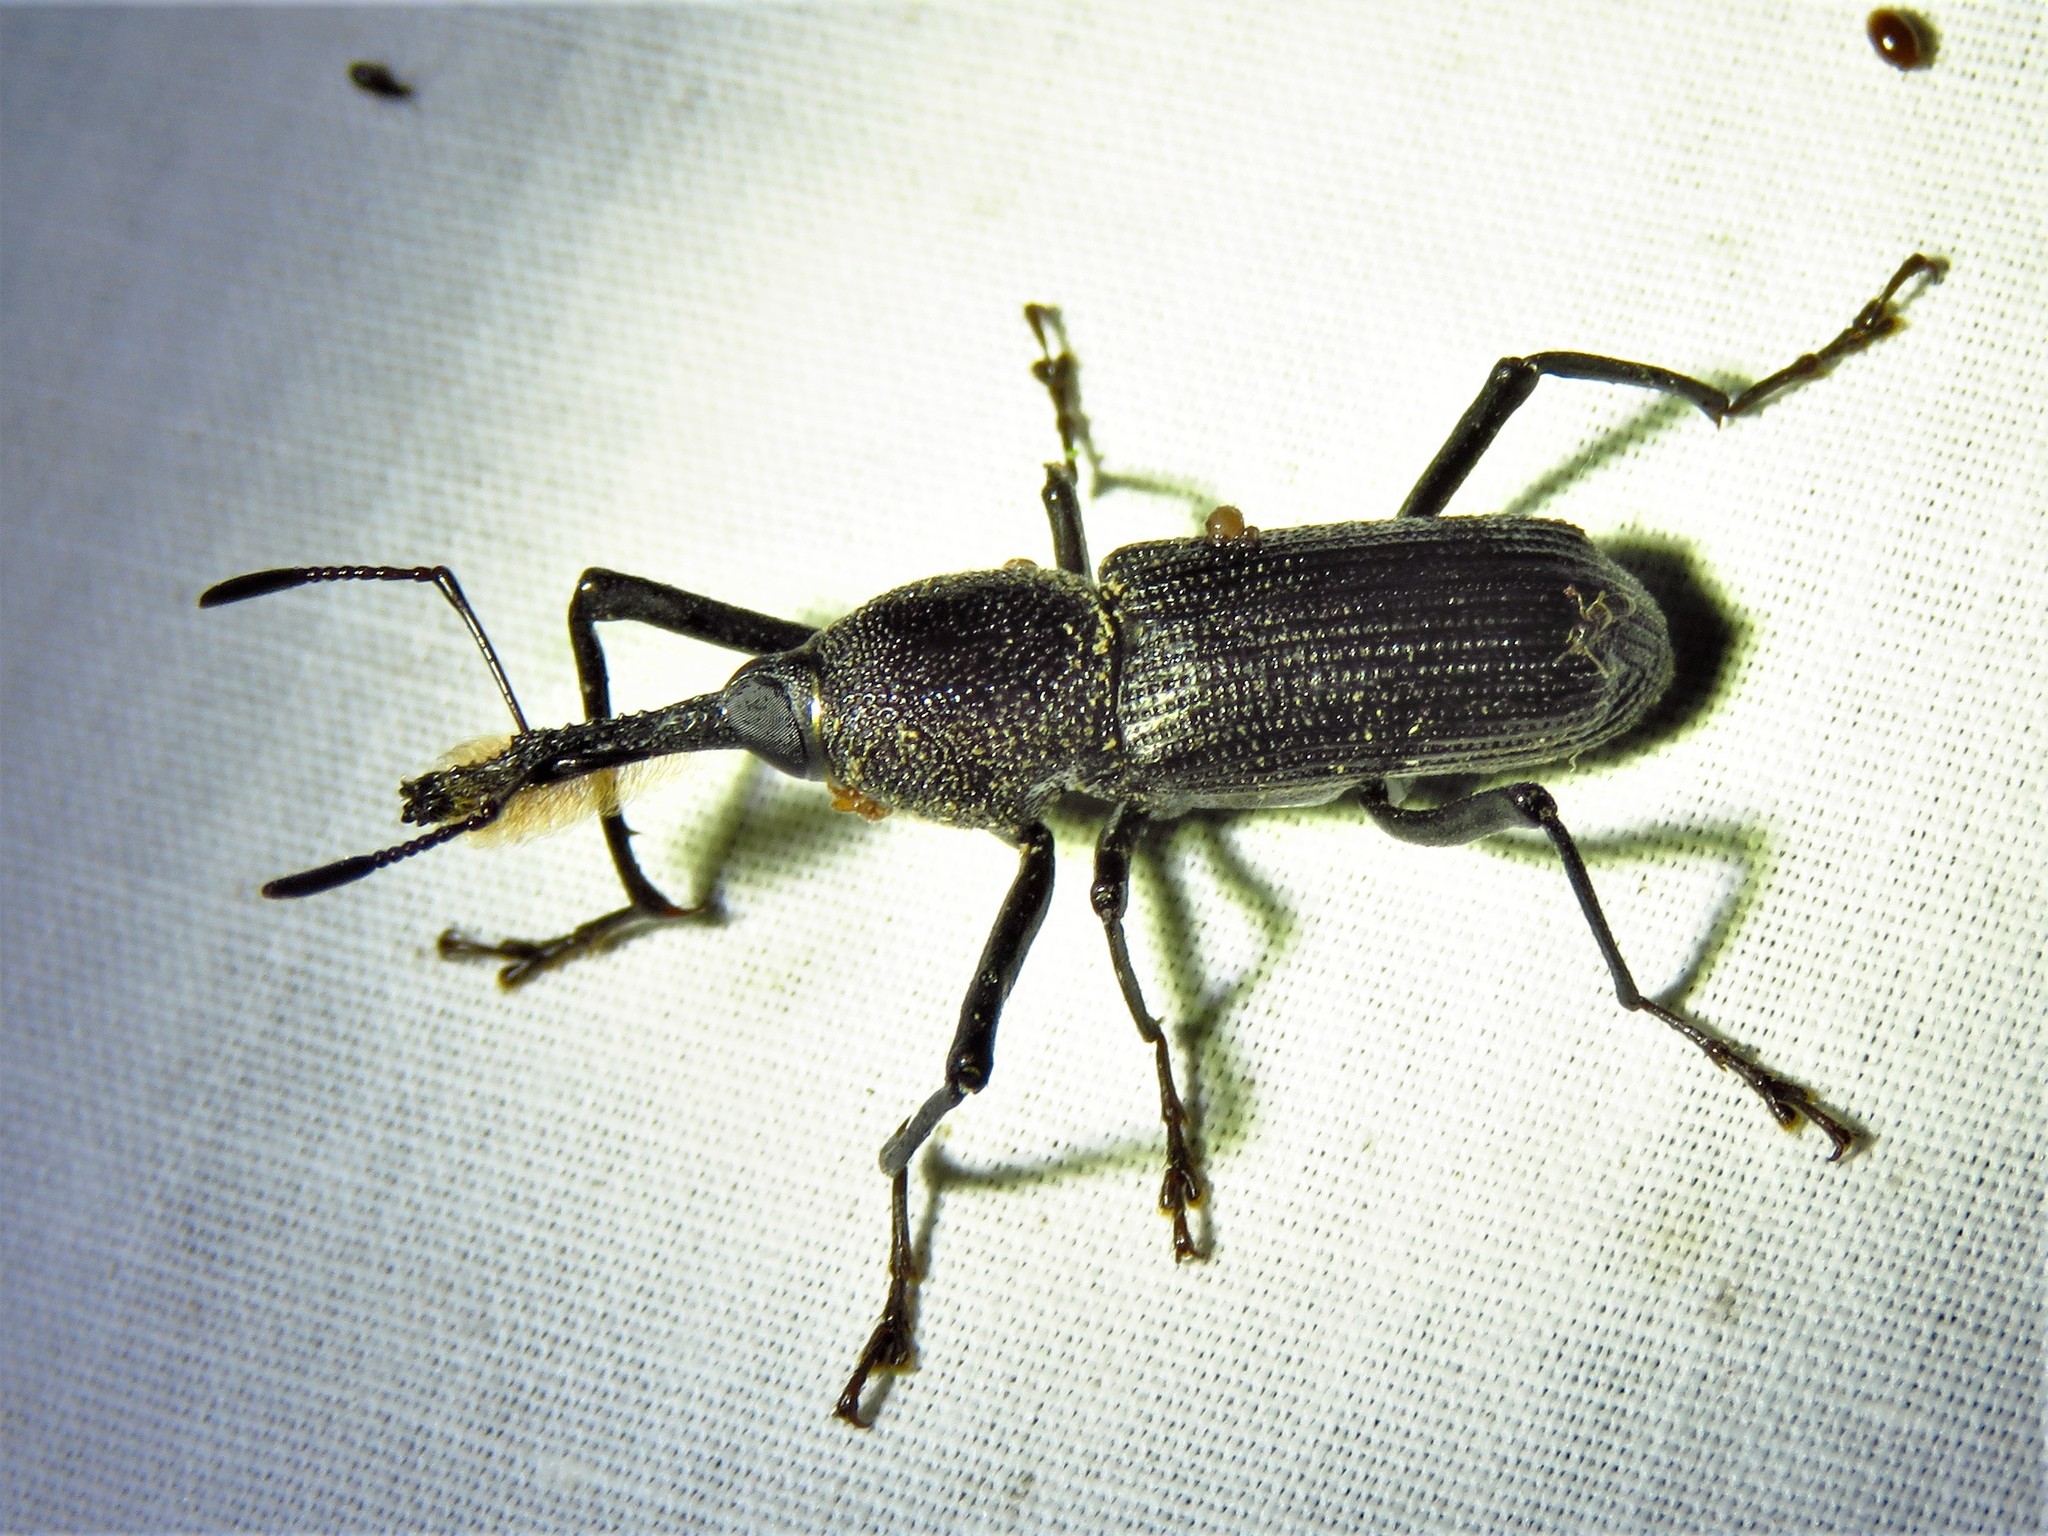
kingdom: Animalia
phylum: Arthropoda
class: Insecta
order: Coleoptera
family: Dryophthoridae
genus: Rhinostomus
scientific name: Rhinostomus barbirostris
